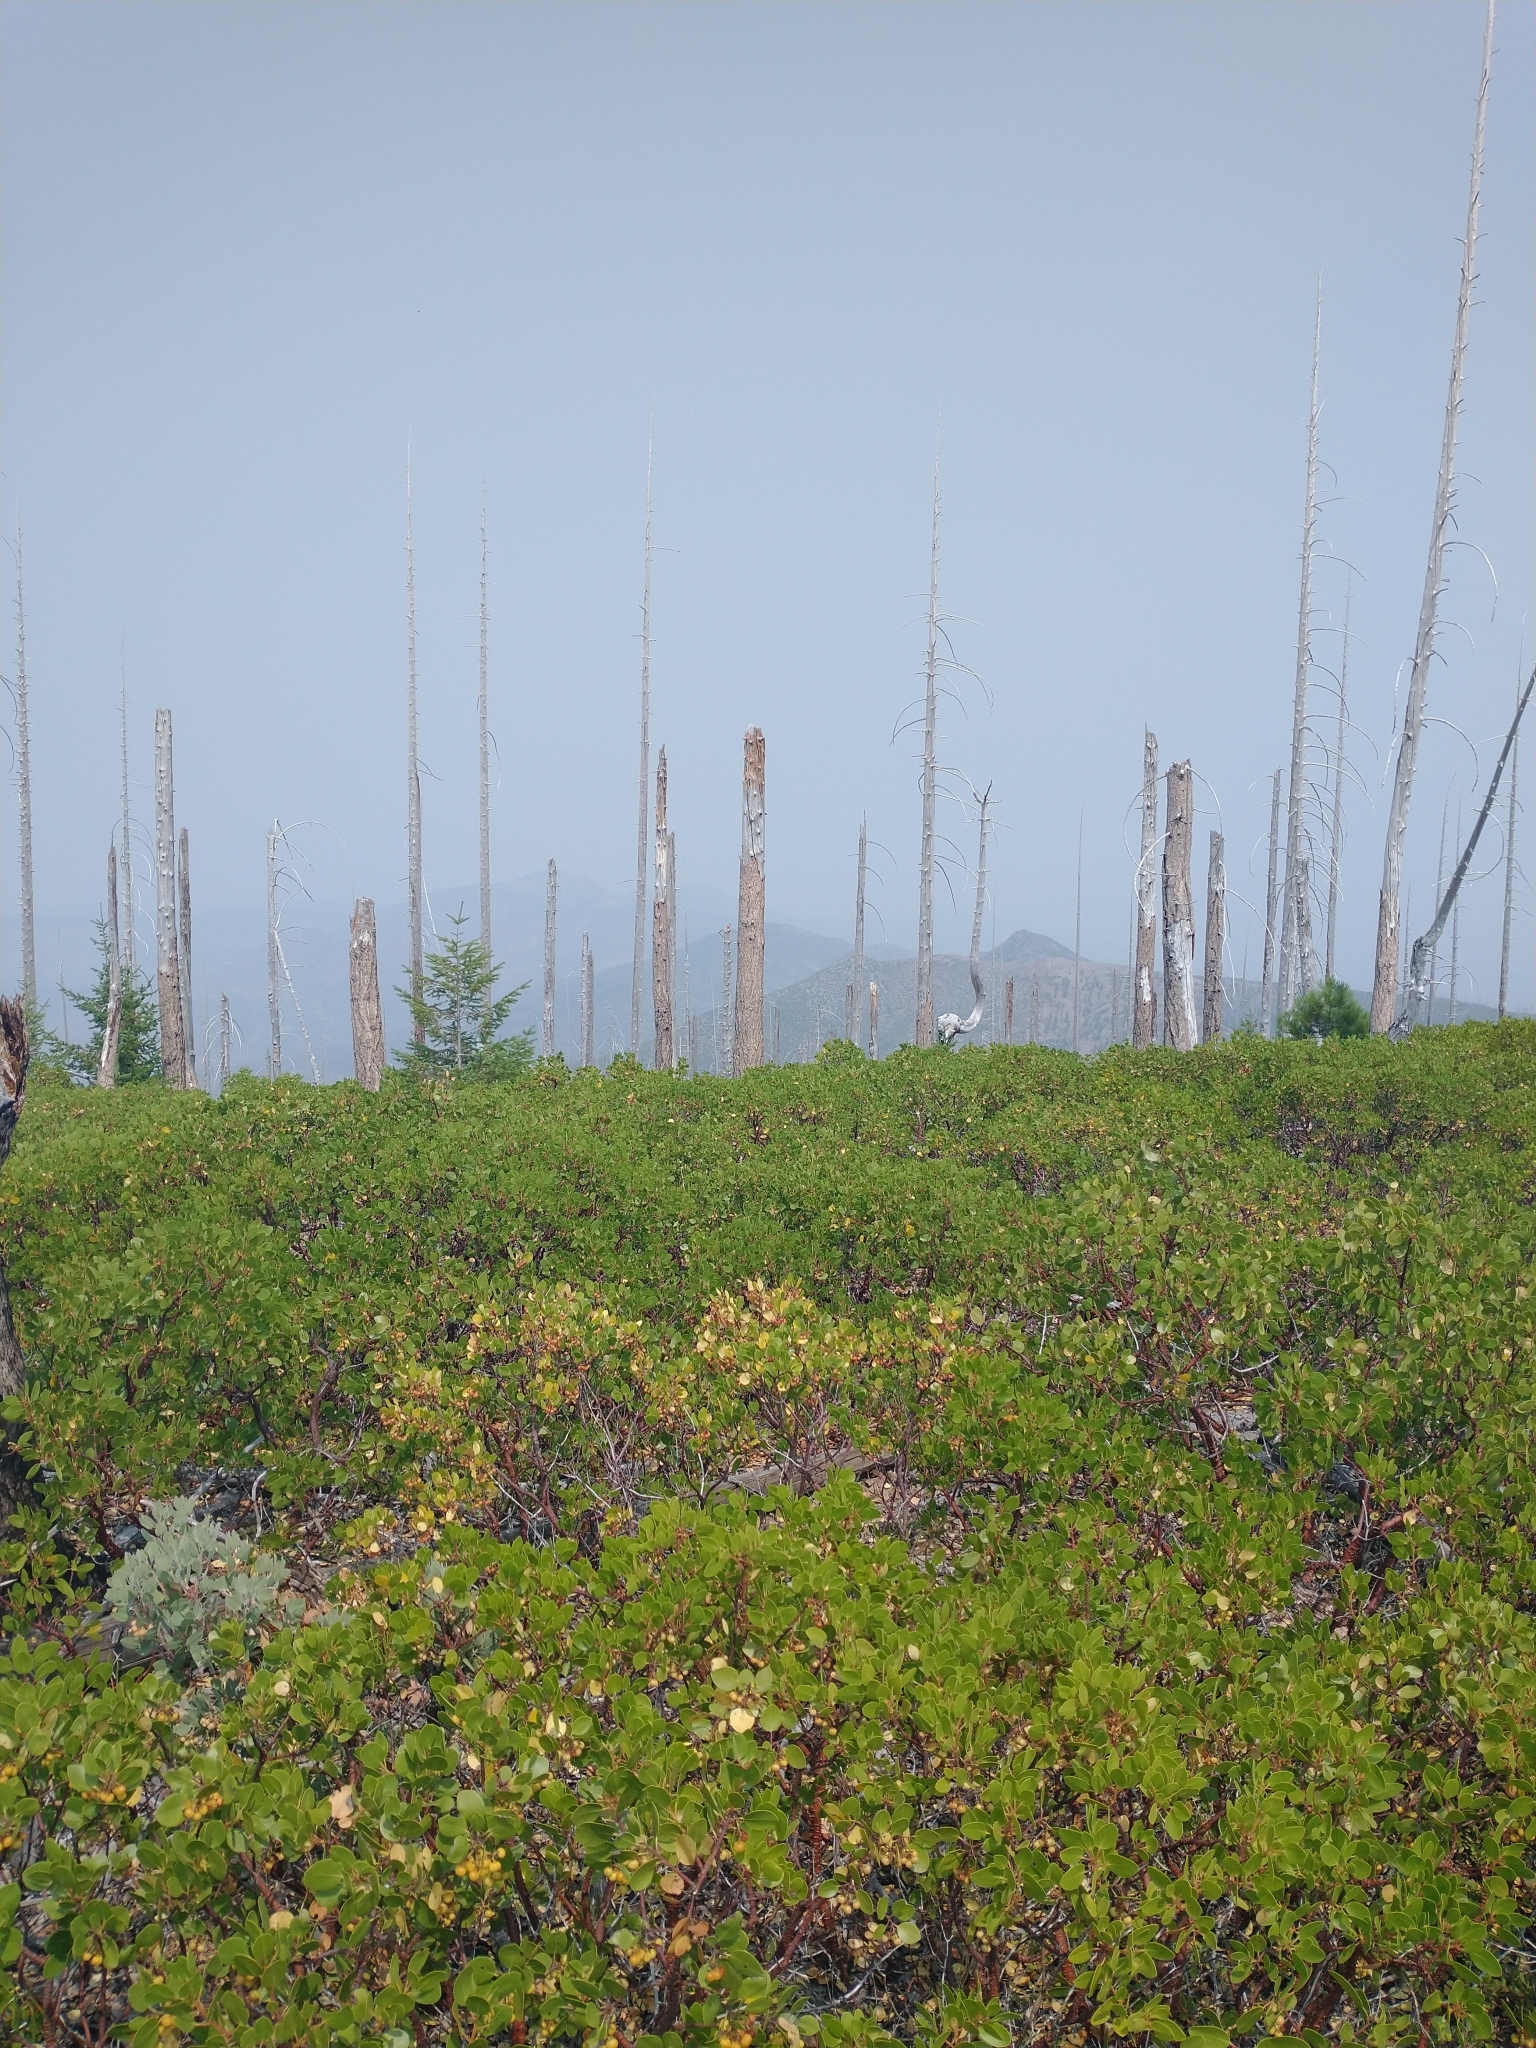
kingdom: Plantae
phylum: Tracheophyta
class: Magnoliopsida
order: Ericales
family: Ericaceae
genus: Arctostaphylos
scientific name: Arctostaphylos patula
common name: Green-leaf manzanita
